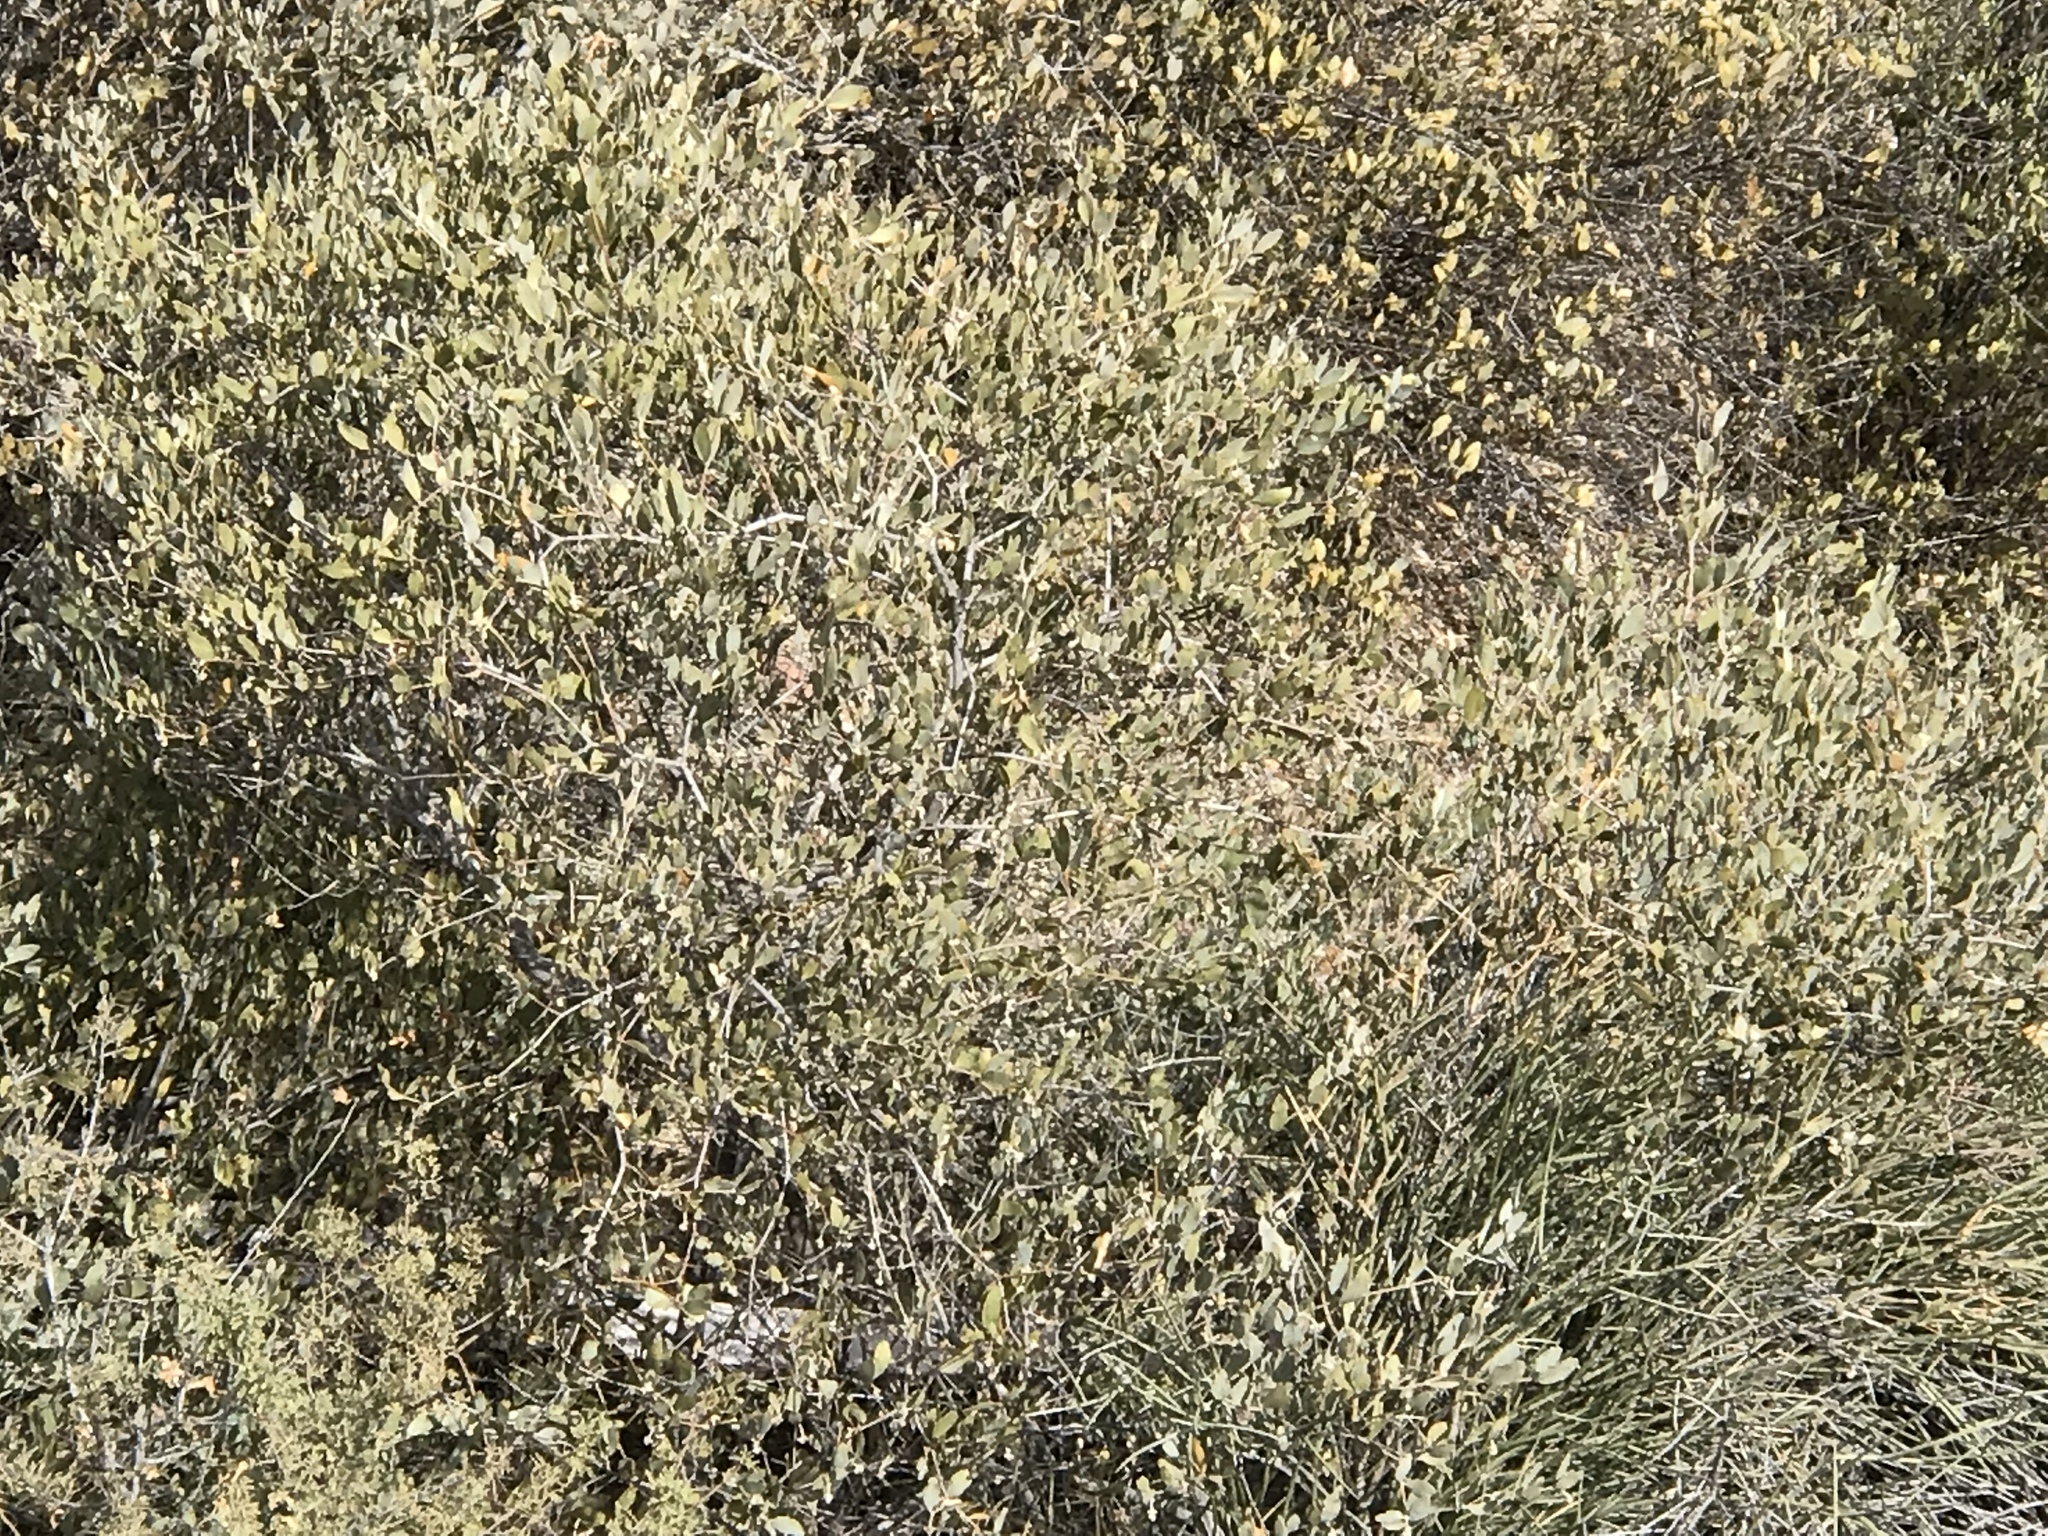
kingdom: Plantae
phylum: Tracheophyta
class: Magnoliopsida
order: Caryophyllales
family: Simmondsiaceae
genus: Simmondsia
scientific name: Simmondsia chinensis
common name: Jojoba
